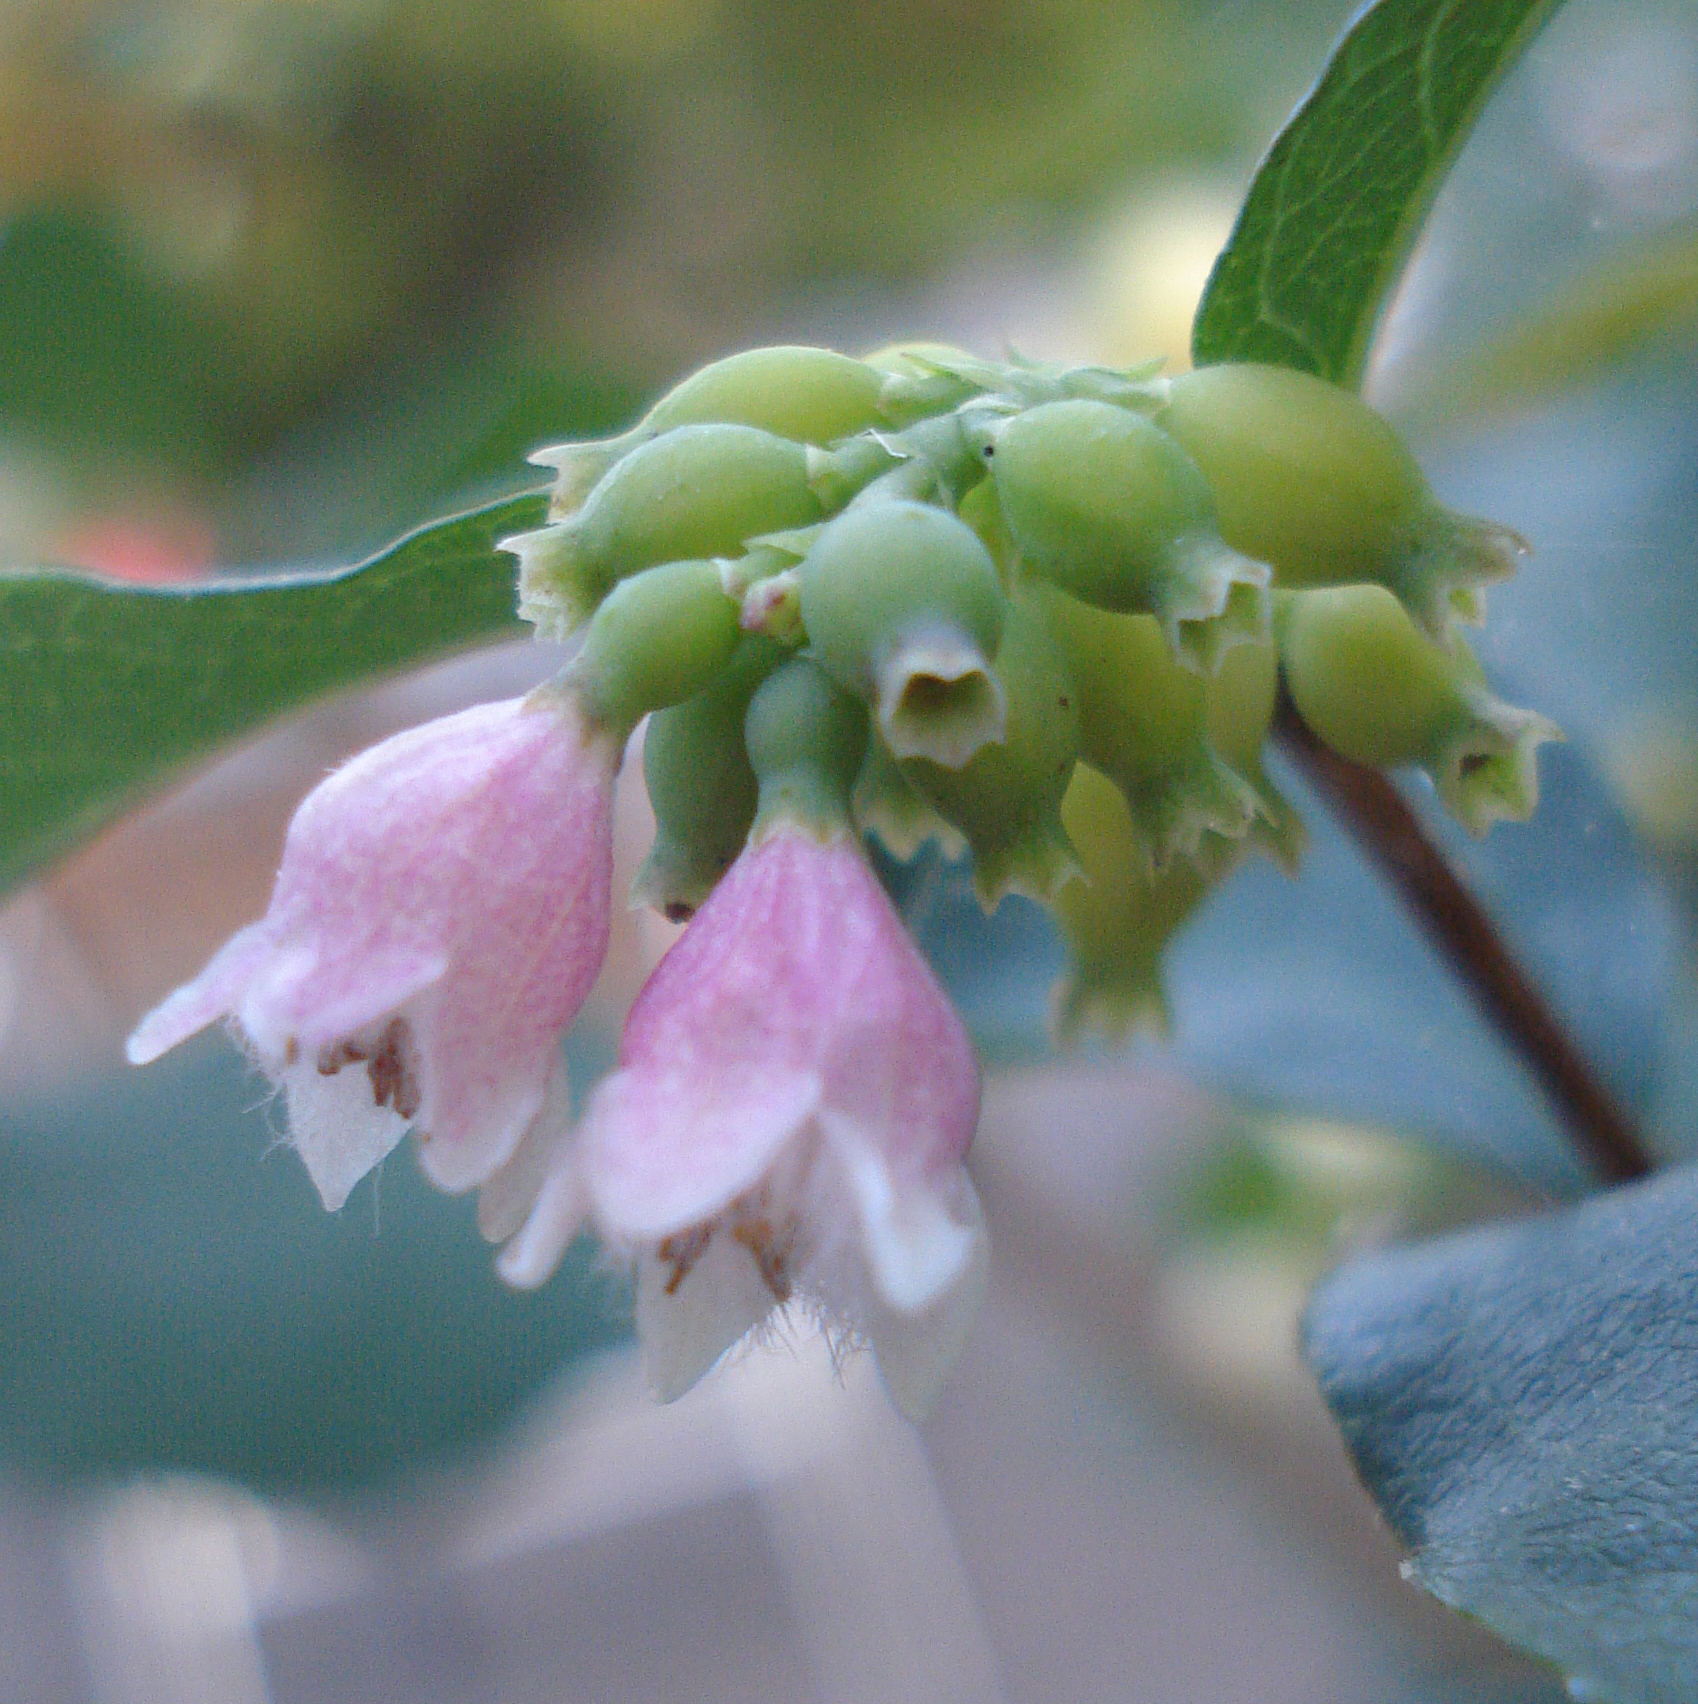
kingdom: Plantae
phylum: Tracheophyta
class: Magnoliopsida
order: Dipsacales
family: Caprifoliaceae
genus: Symphoricarpos
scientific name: Symphoricarpos albus
